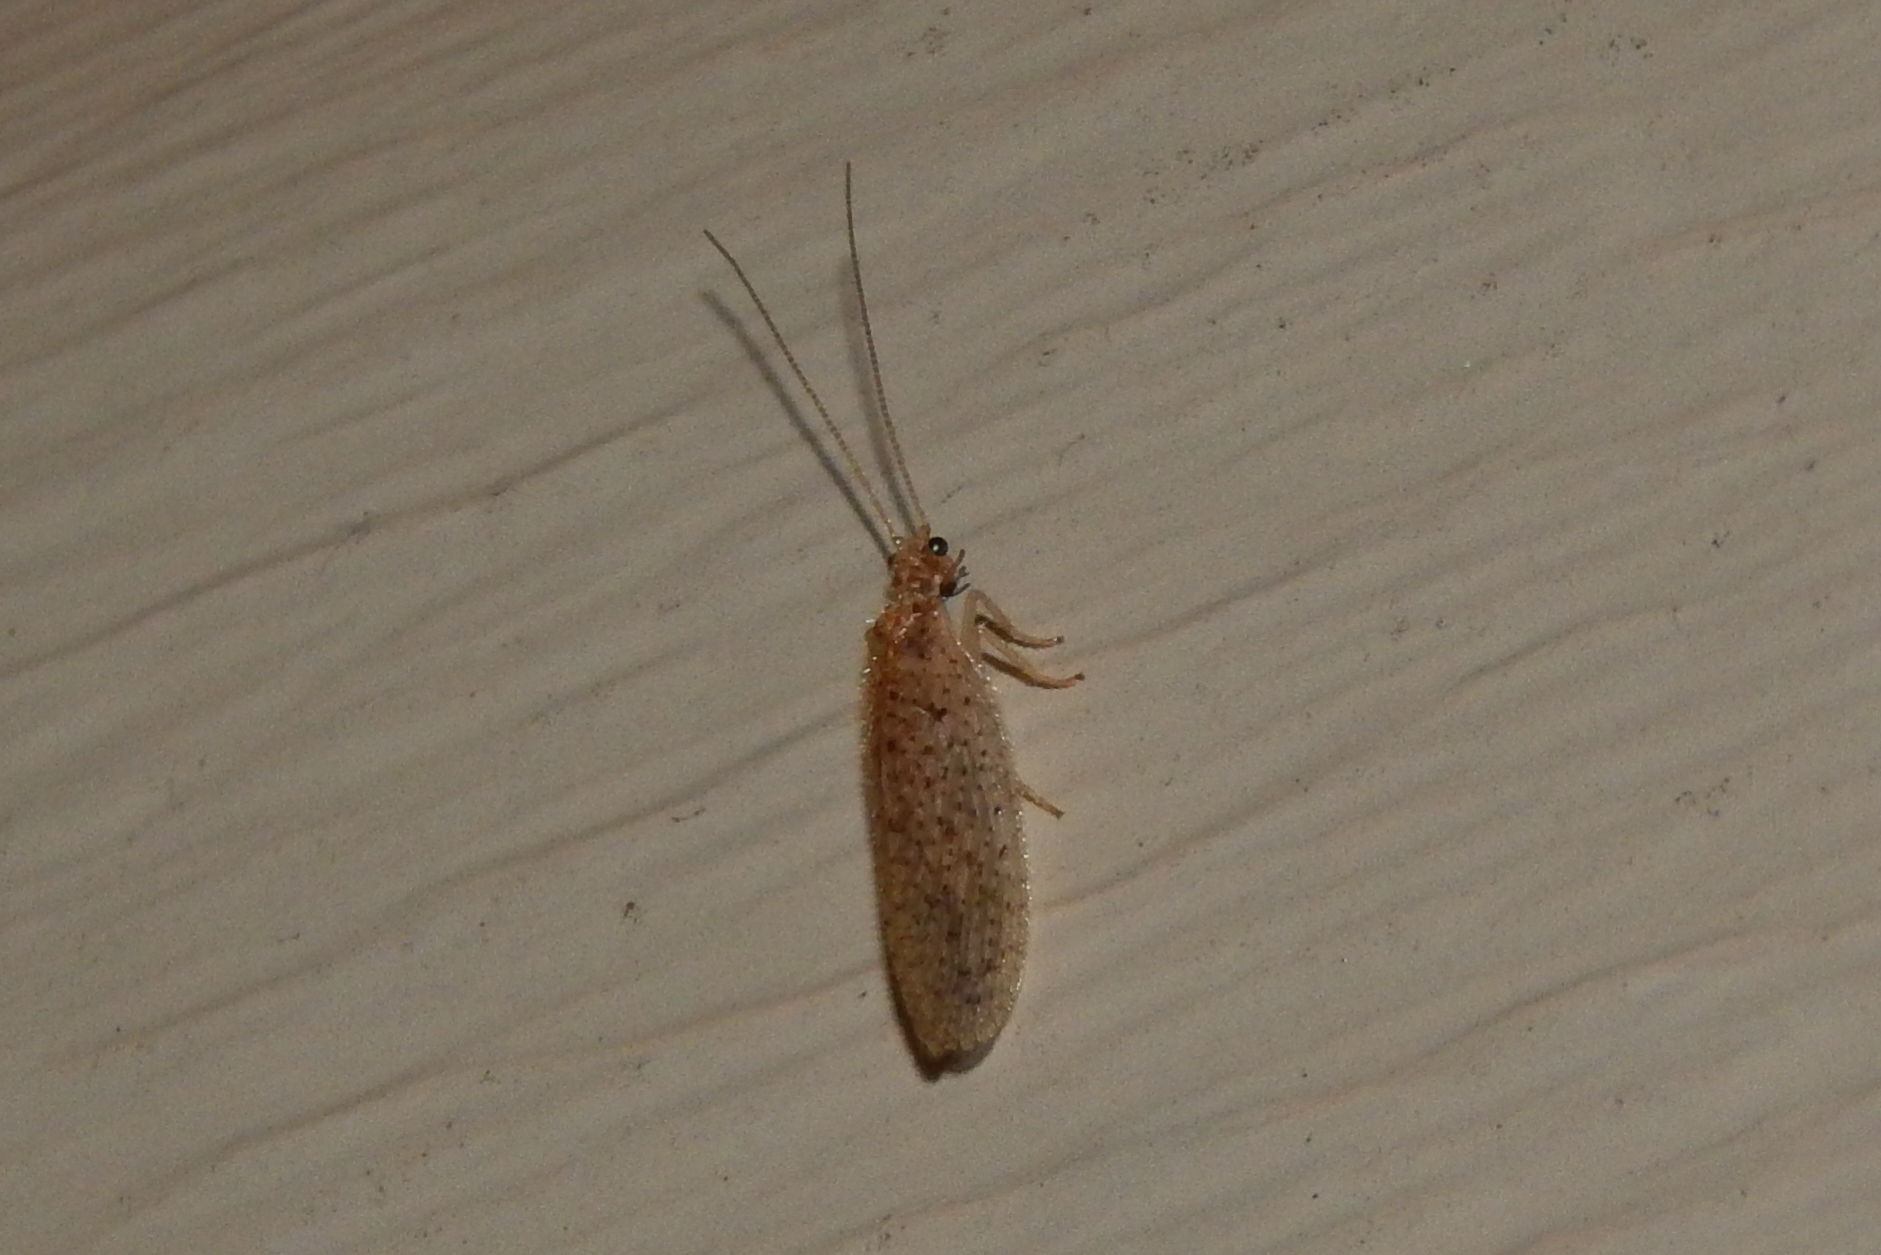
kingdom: Animalia
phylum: Arthropoda
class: Insecta
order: Neuroptera
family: Hemerobiidae
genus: Micromus
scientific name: Micromus subanticus
